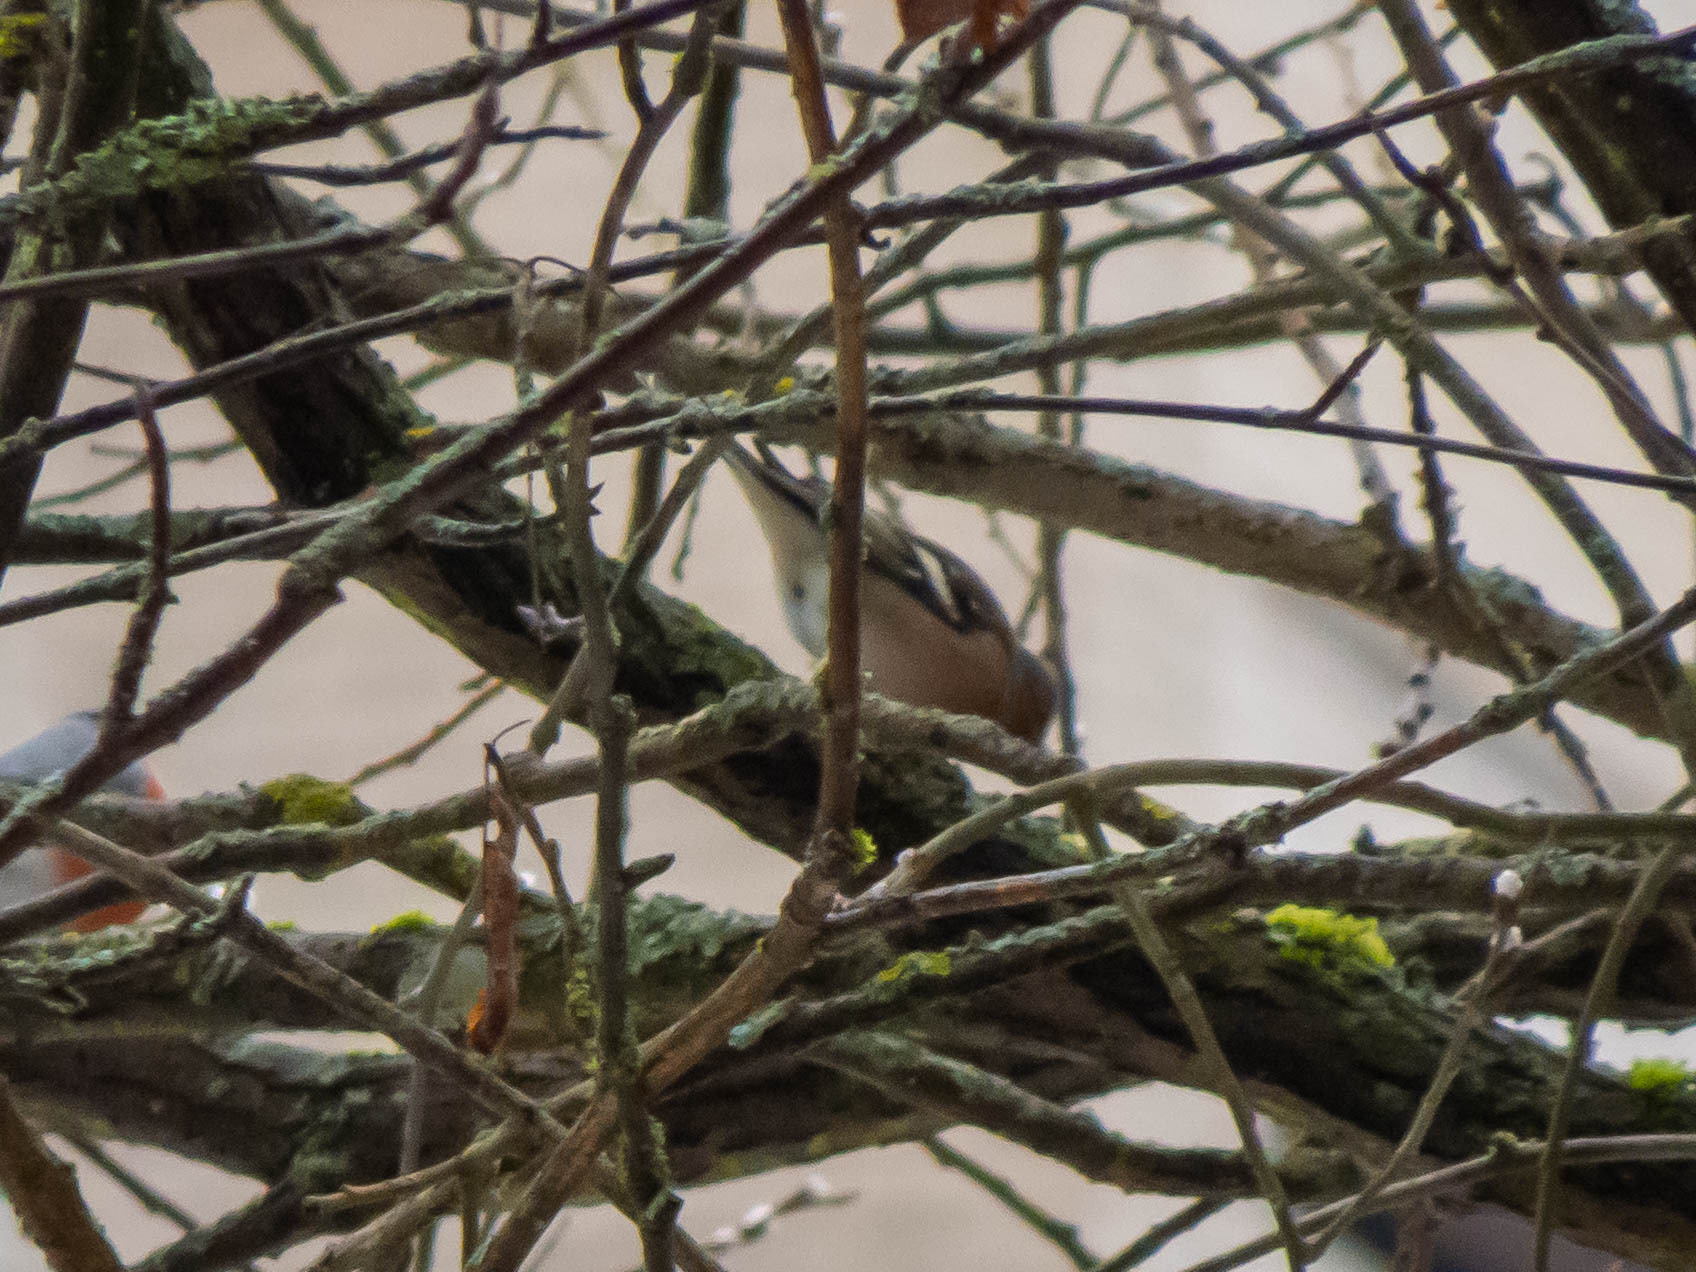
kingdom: Animalia
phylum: Chordata
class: Aves
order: Passeriformes
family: Fringillidae
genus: Fringilla
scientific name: Fringilla coelebs
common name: Common chaffinch
